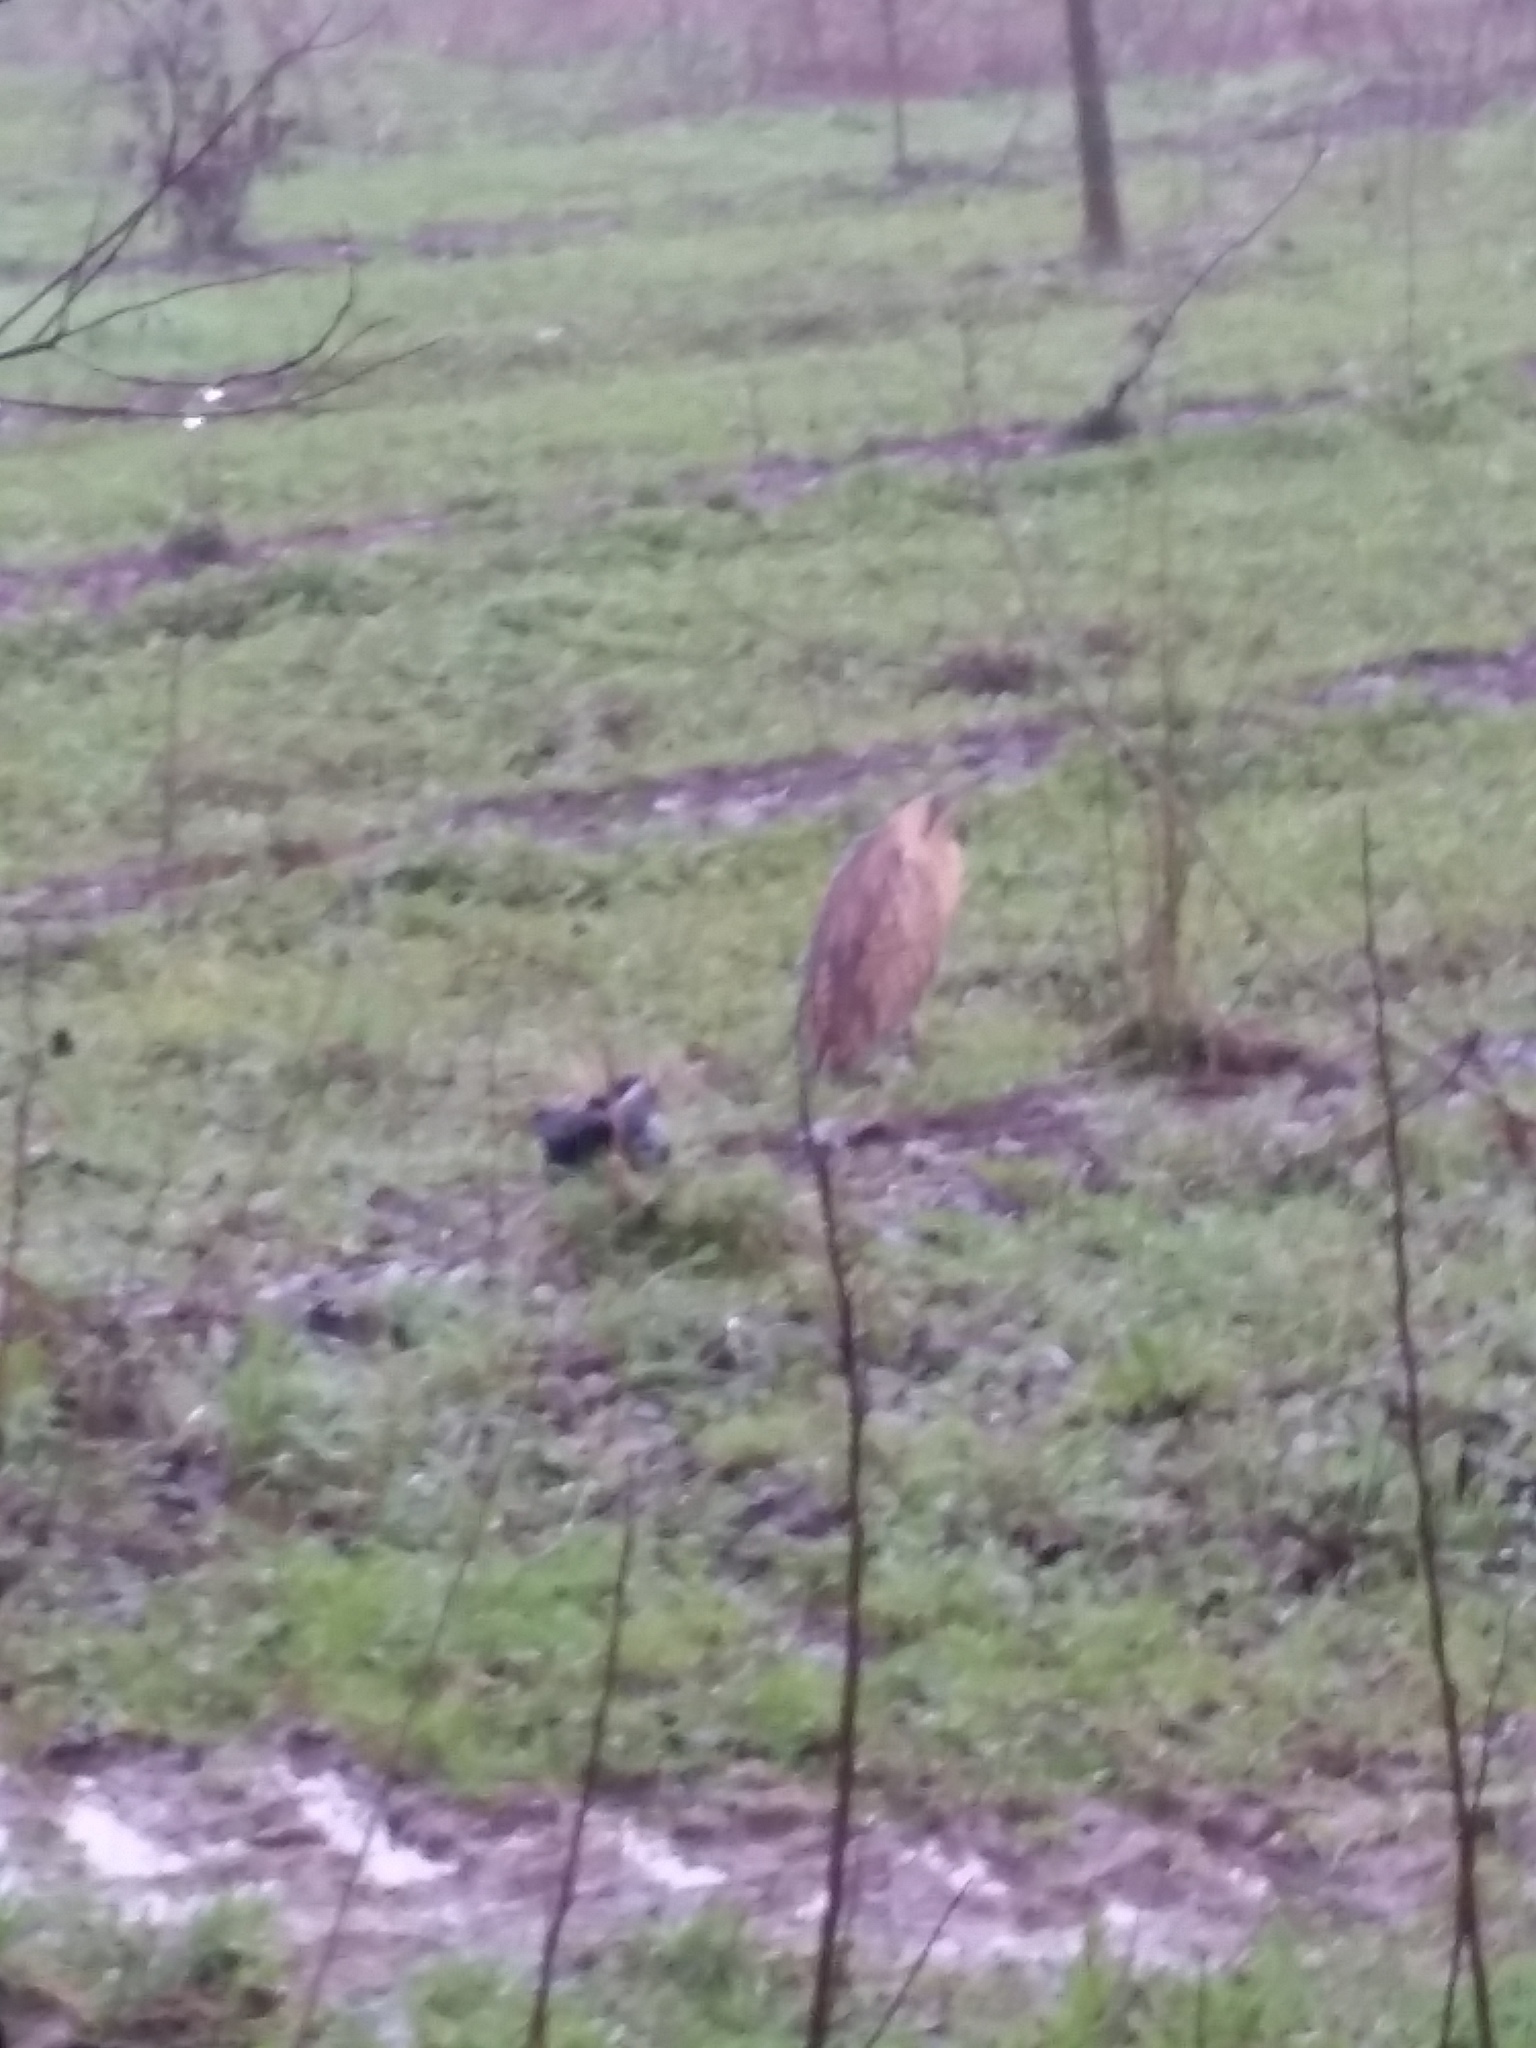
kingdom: Animalia
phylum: Chordata
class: Aves
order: Pelecaniformes
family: Ardeidae
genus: Botaurus
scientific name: Botaurus stellaris
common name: Eurasian bittern
